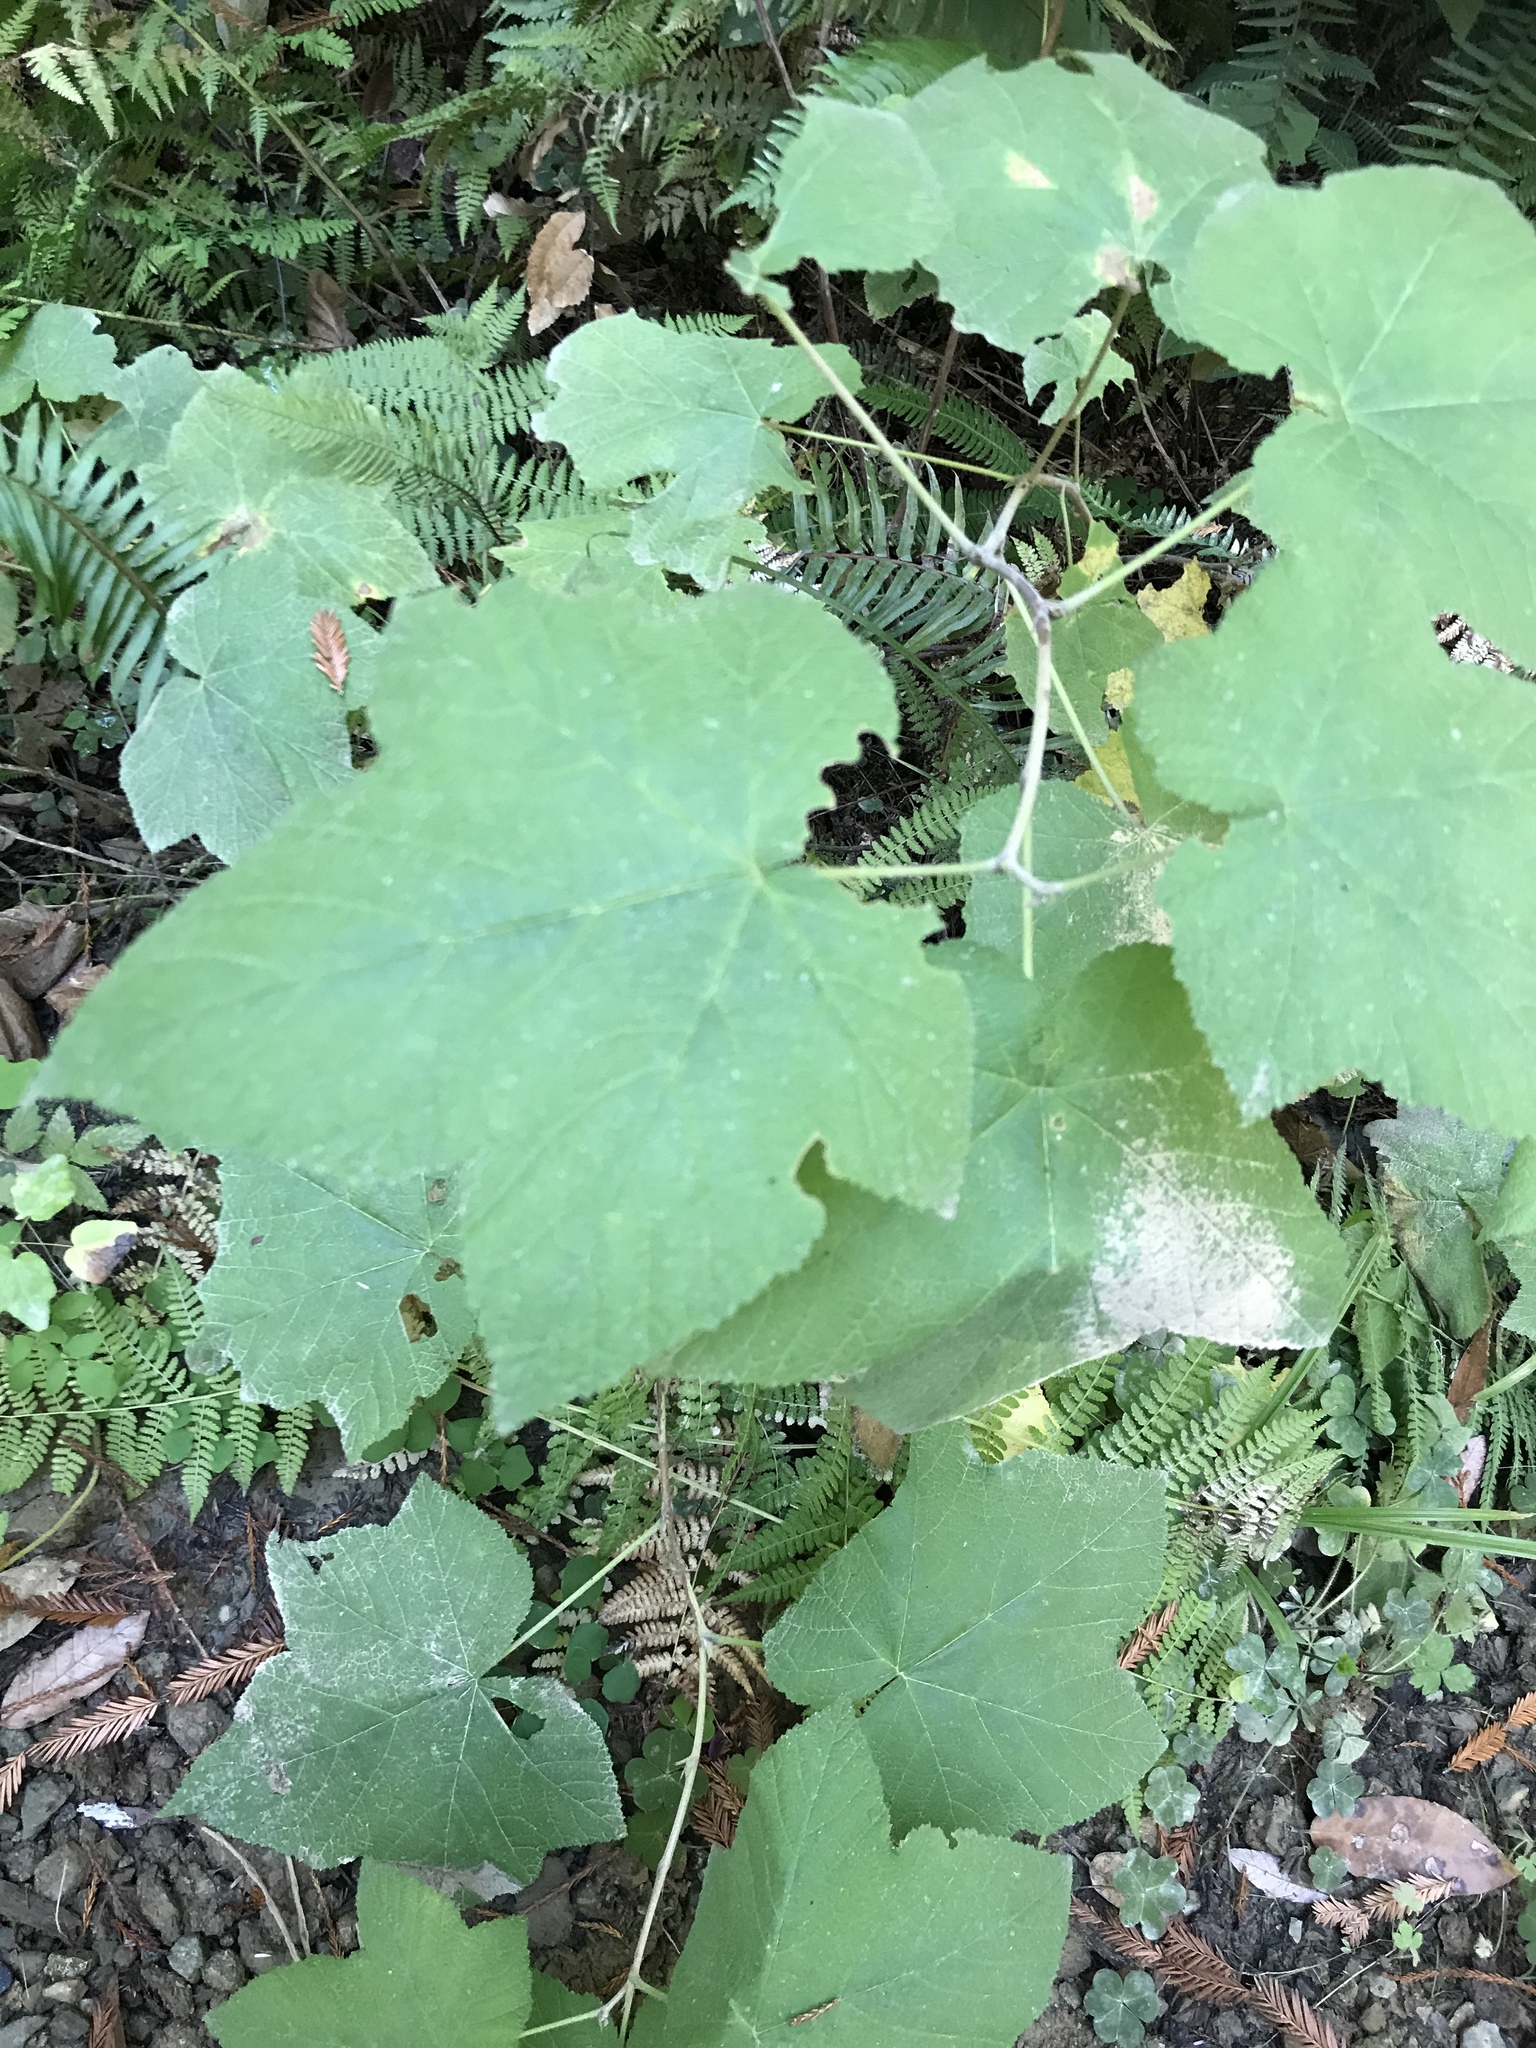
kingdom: Plantae
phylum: Tracheophyta
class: Magnoliopsida
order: Rosales
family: Rosaceae
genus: Rubus
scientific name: Rubus parviflorus
